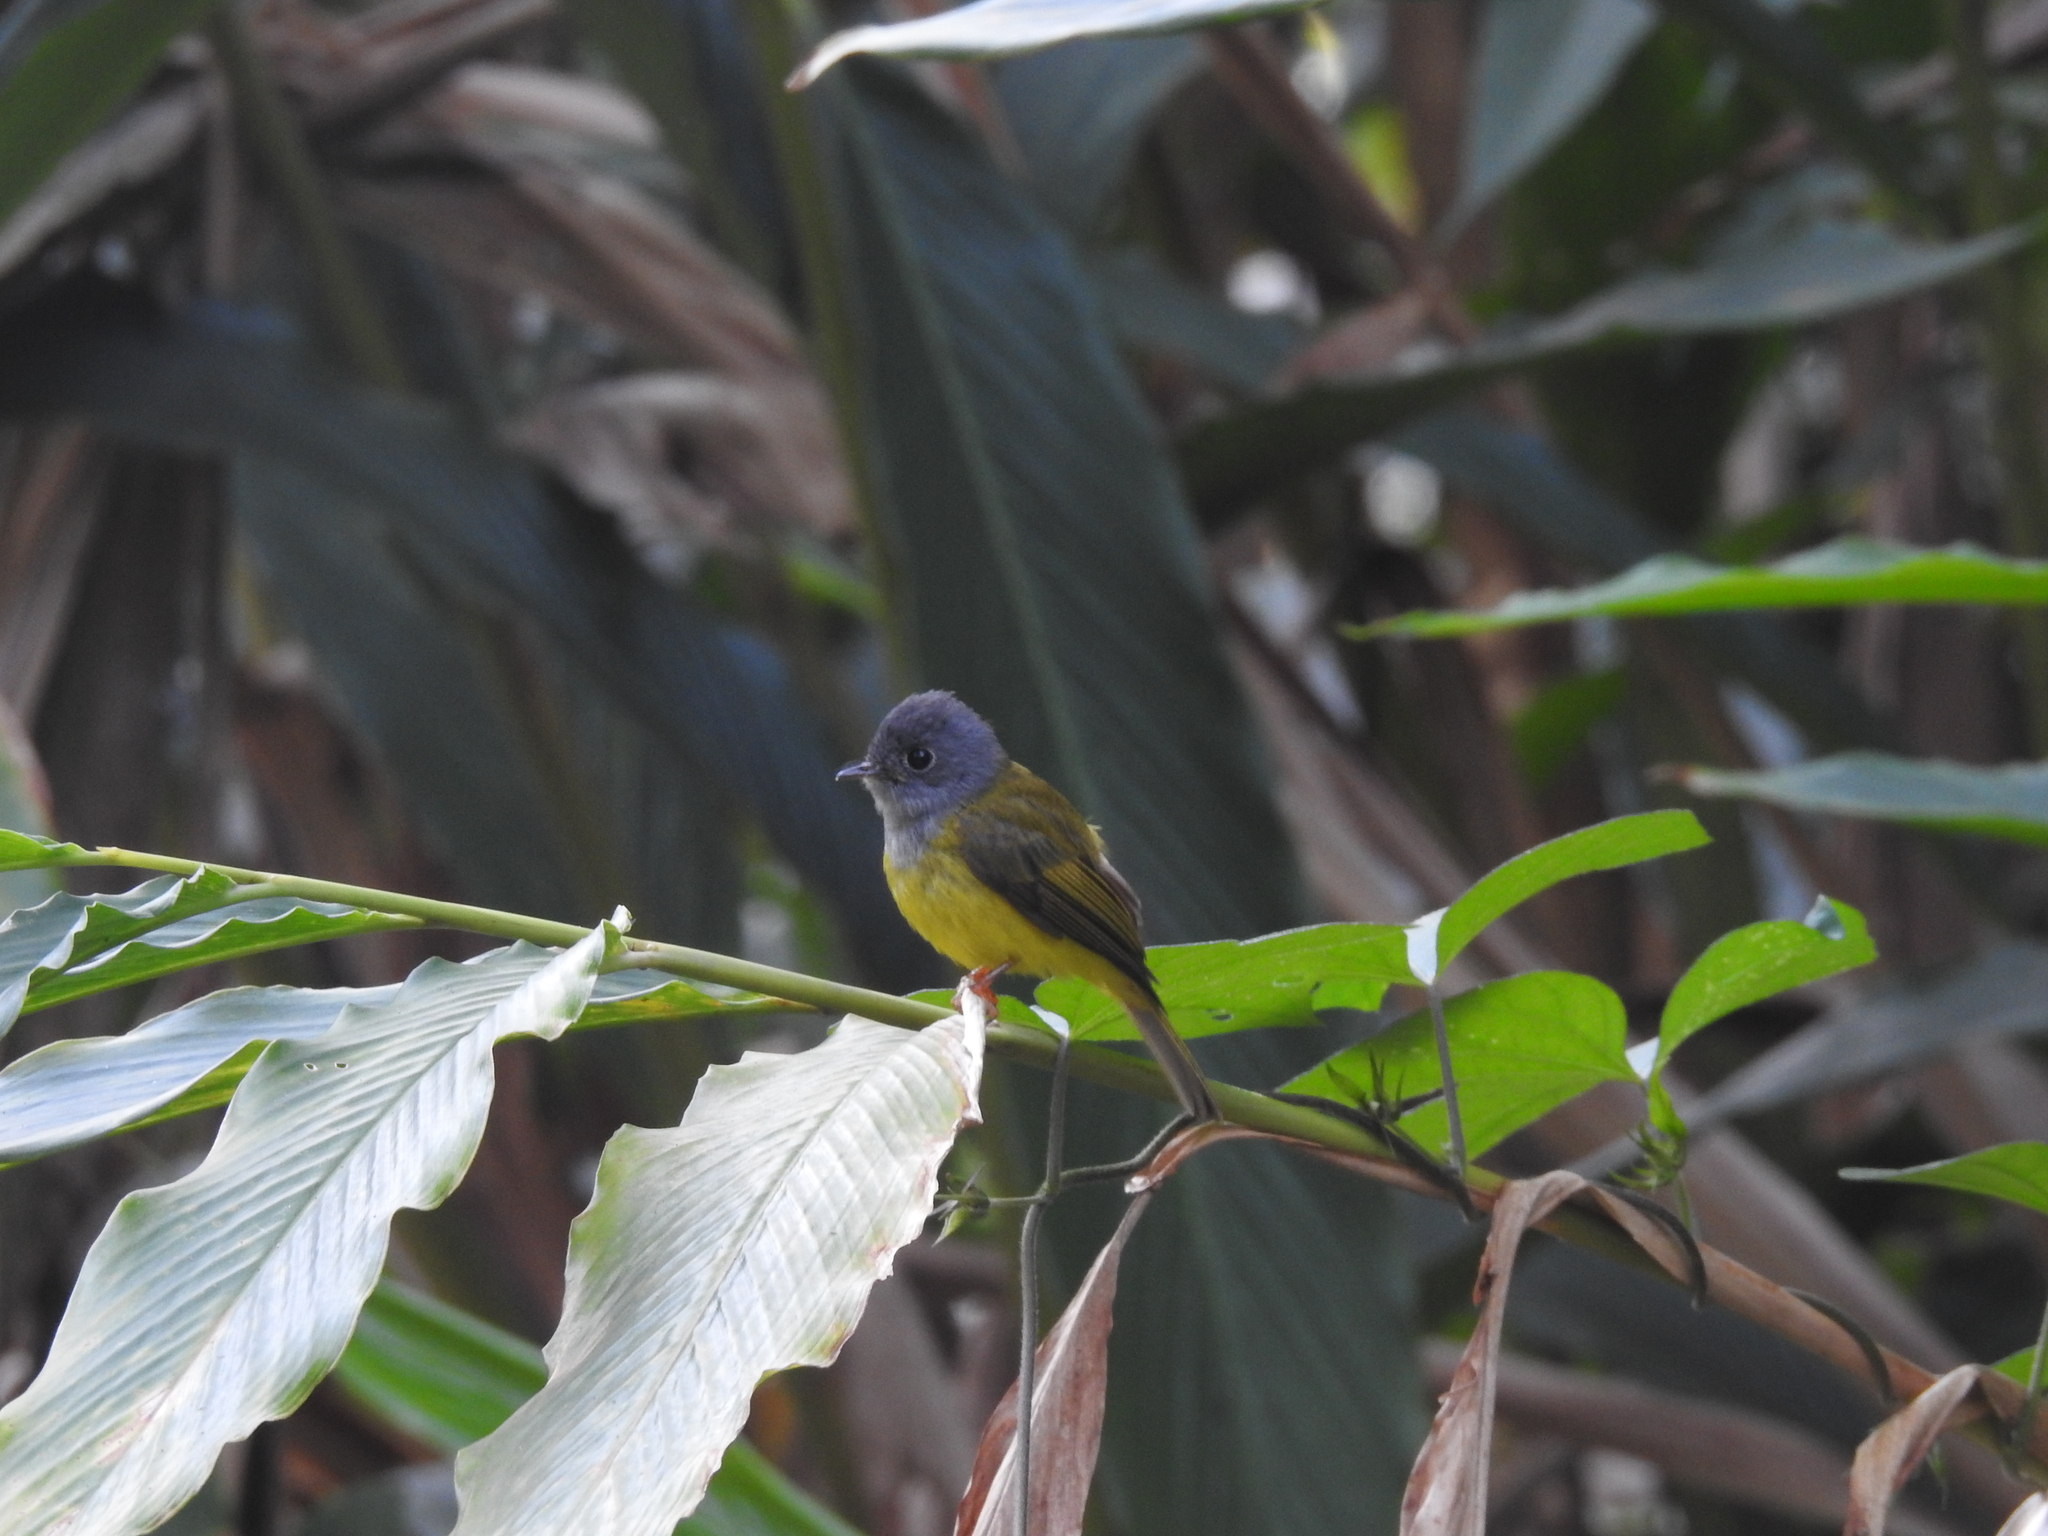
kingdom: Animalia
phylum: Chordata
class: Aves
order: Passeriformes
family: Stenostiridae
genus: Culicicapa
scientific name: Culicicapa ceylonensis
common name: Grey-headed canary-flycatcher
